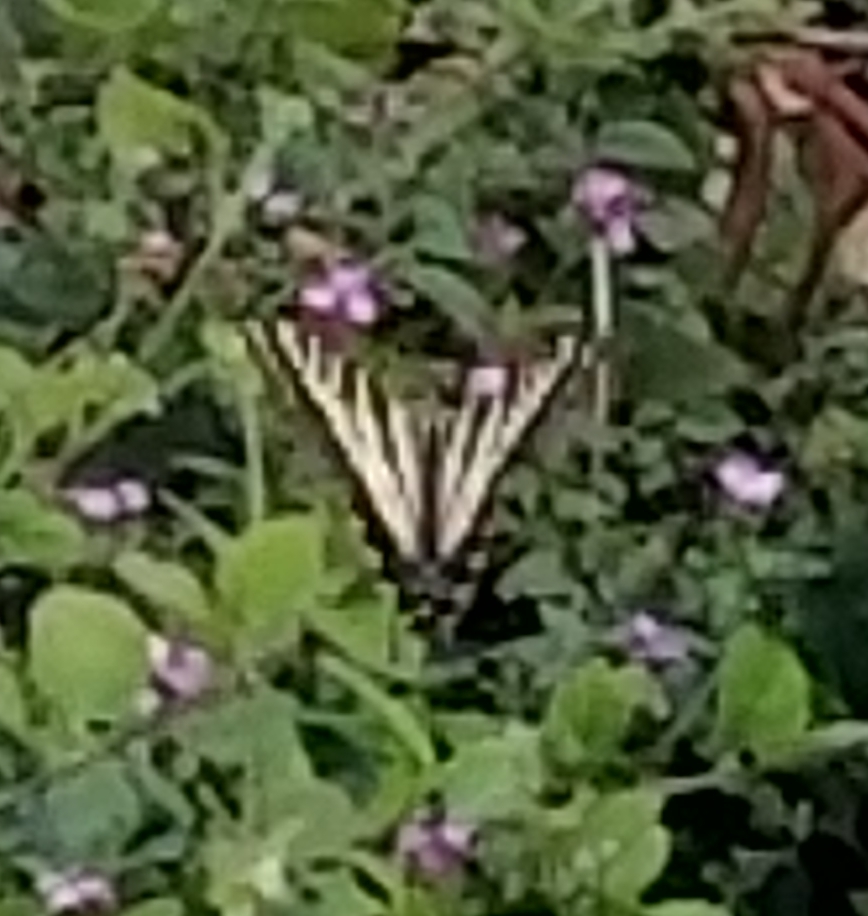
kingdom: Animalia
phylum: Arthropoda
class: Insecta
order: Lepidoptera
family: Papilionidae
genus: Papilio
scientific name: Papilio eurymedon
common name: Pale tiger swallowtail
